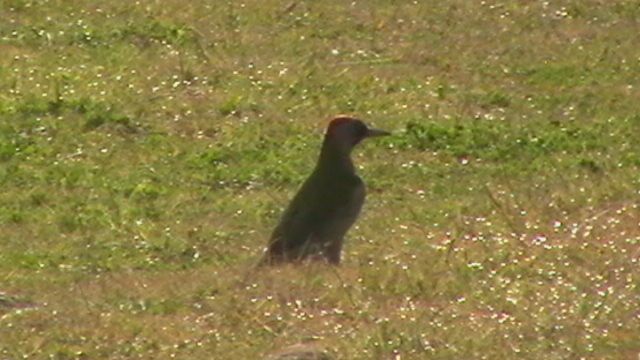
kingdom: Animalia
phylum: Chordata
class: Aves
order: Piciformes
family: Picidae
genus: Picus
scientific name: Picus sharpei
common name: Iberian green woodpecker
